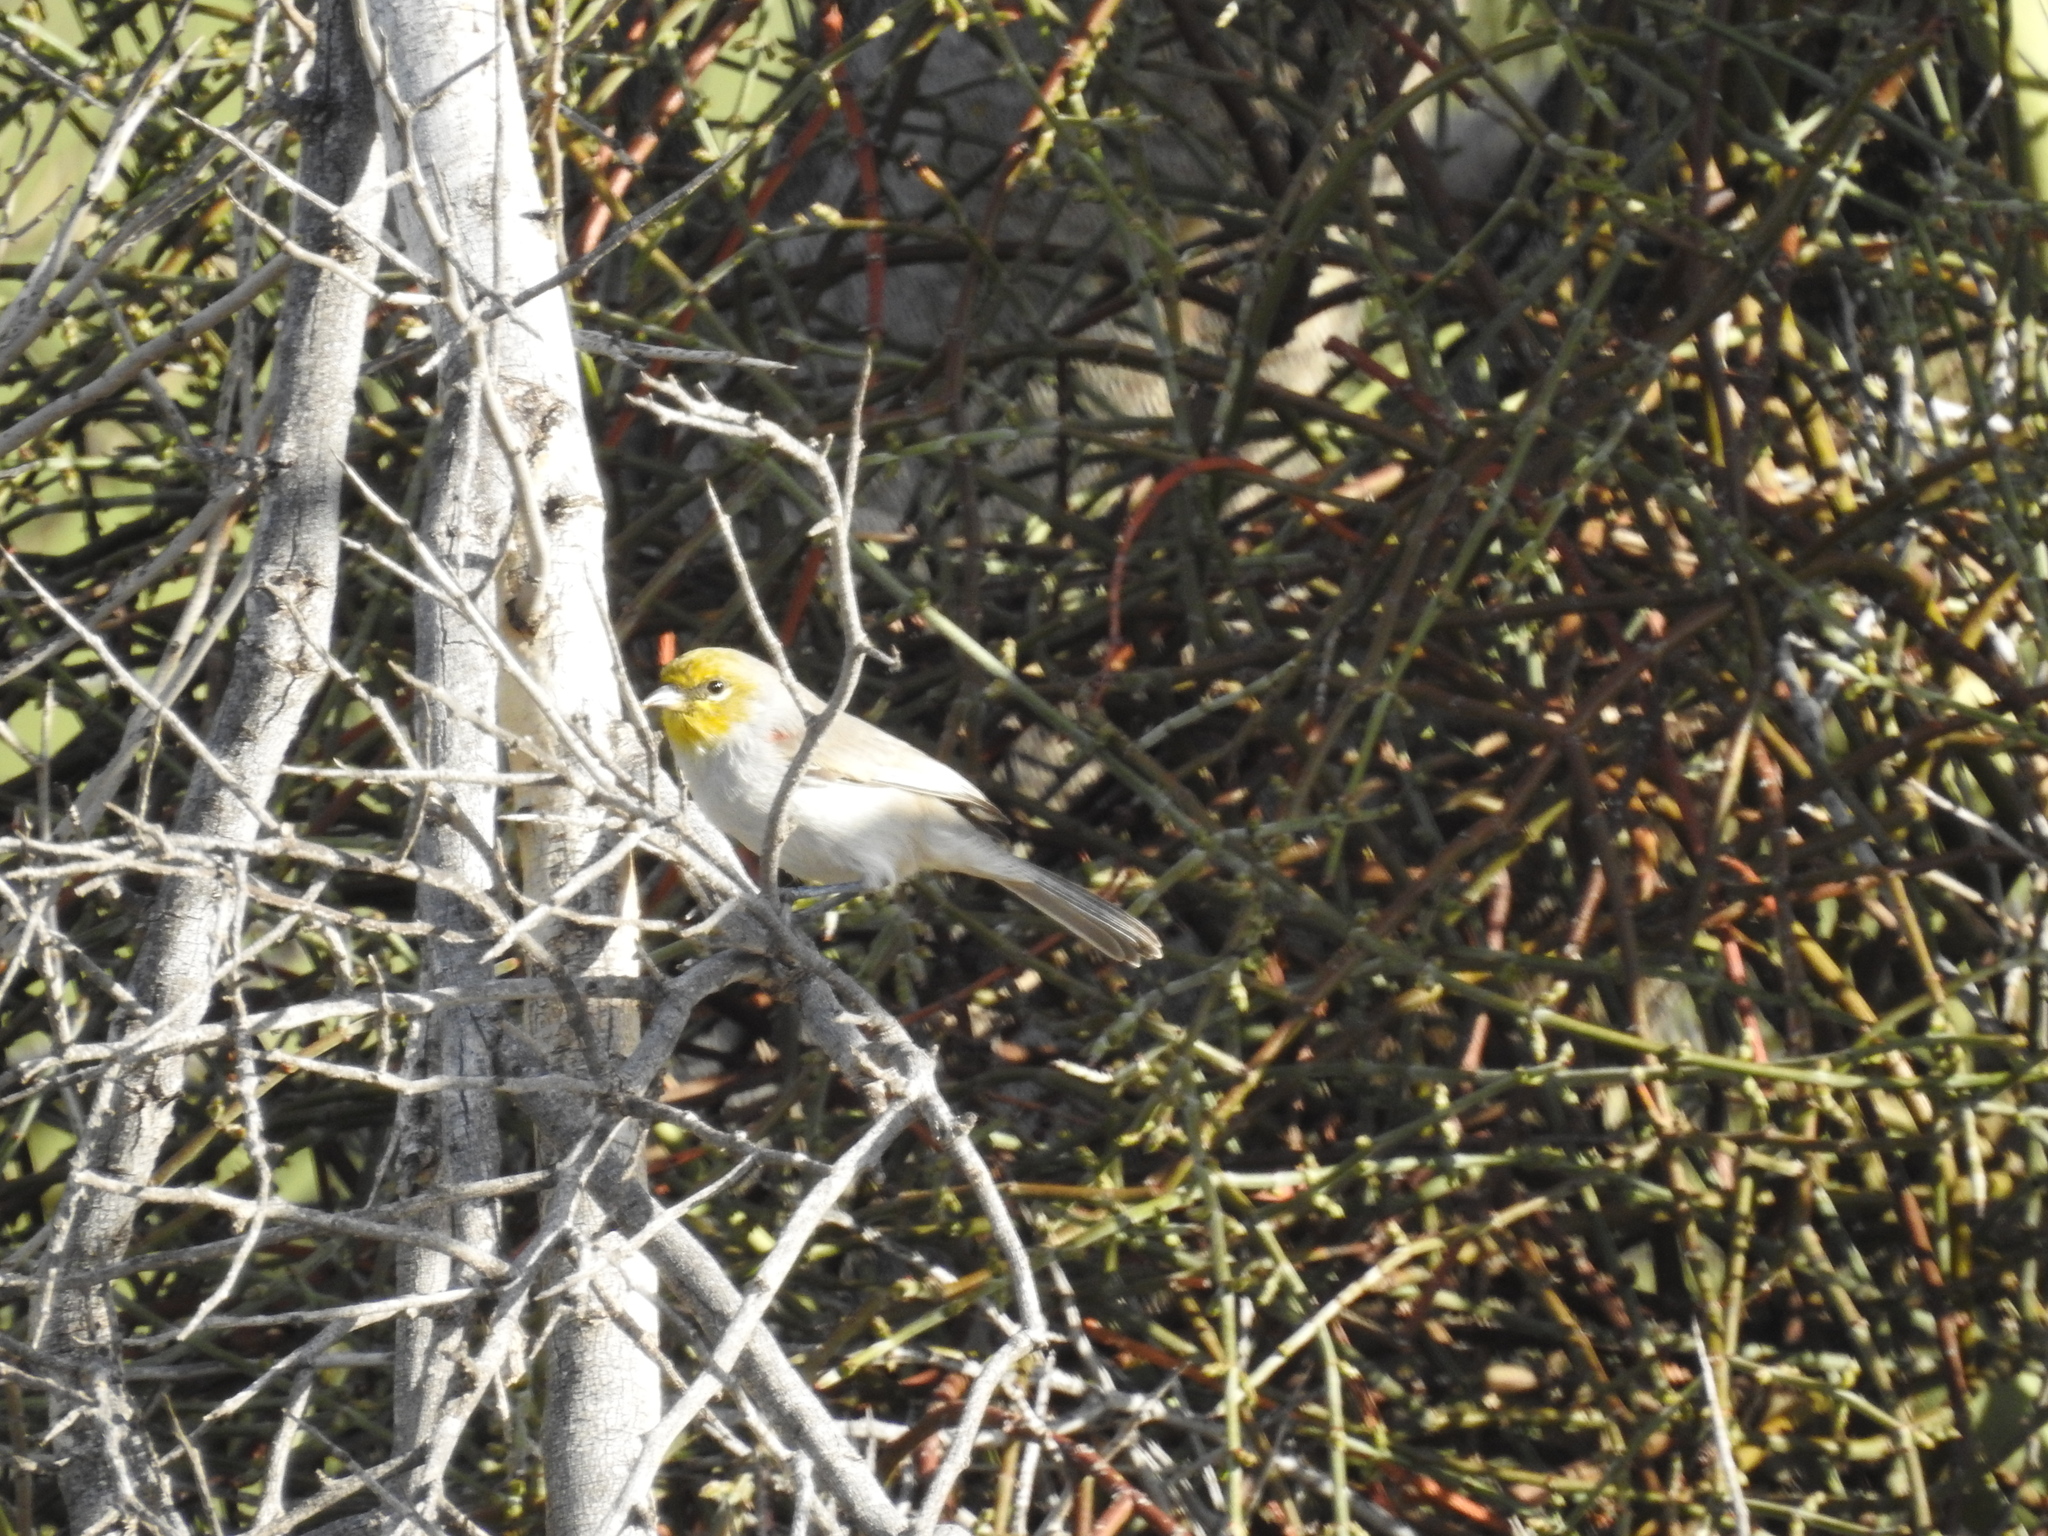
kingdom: Animalia
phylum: Chordata
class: Aves
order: Passeriformes
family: Remizidae
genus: Auriparus
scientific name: Auriparus flaviceps
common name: Verdin
